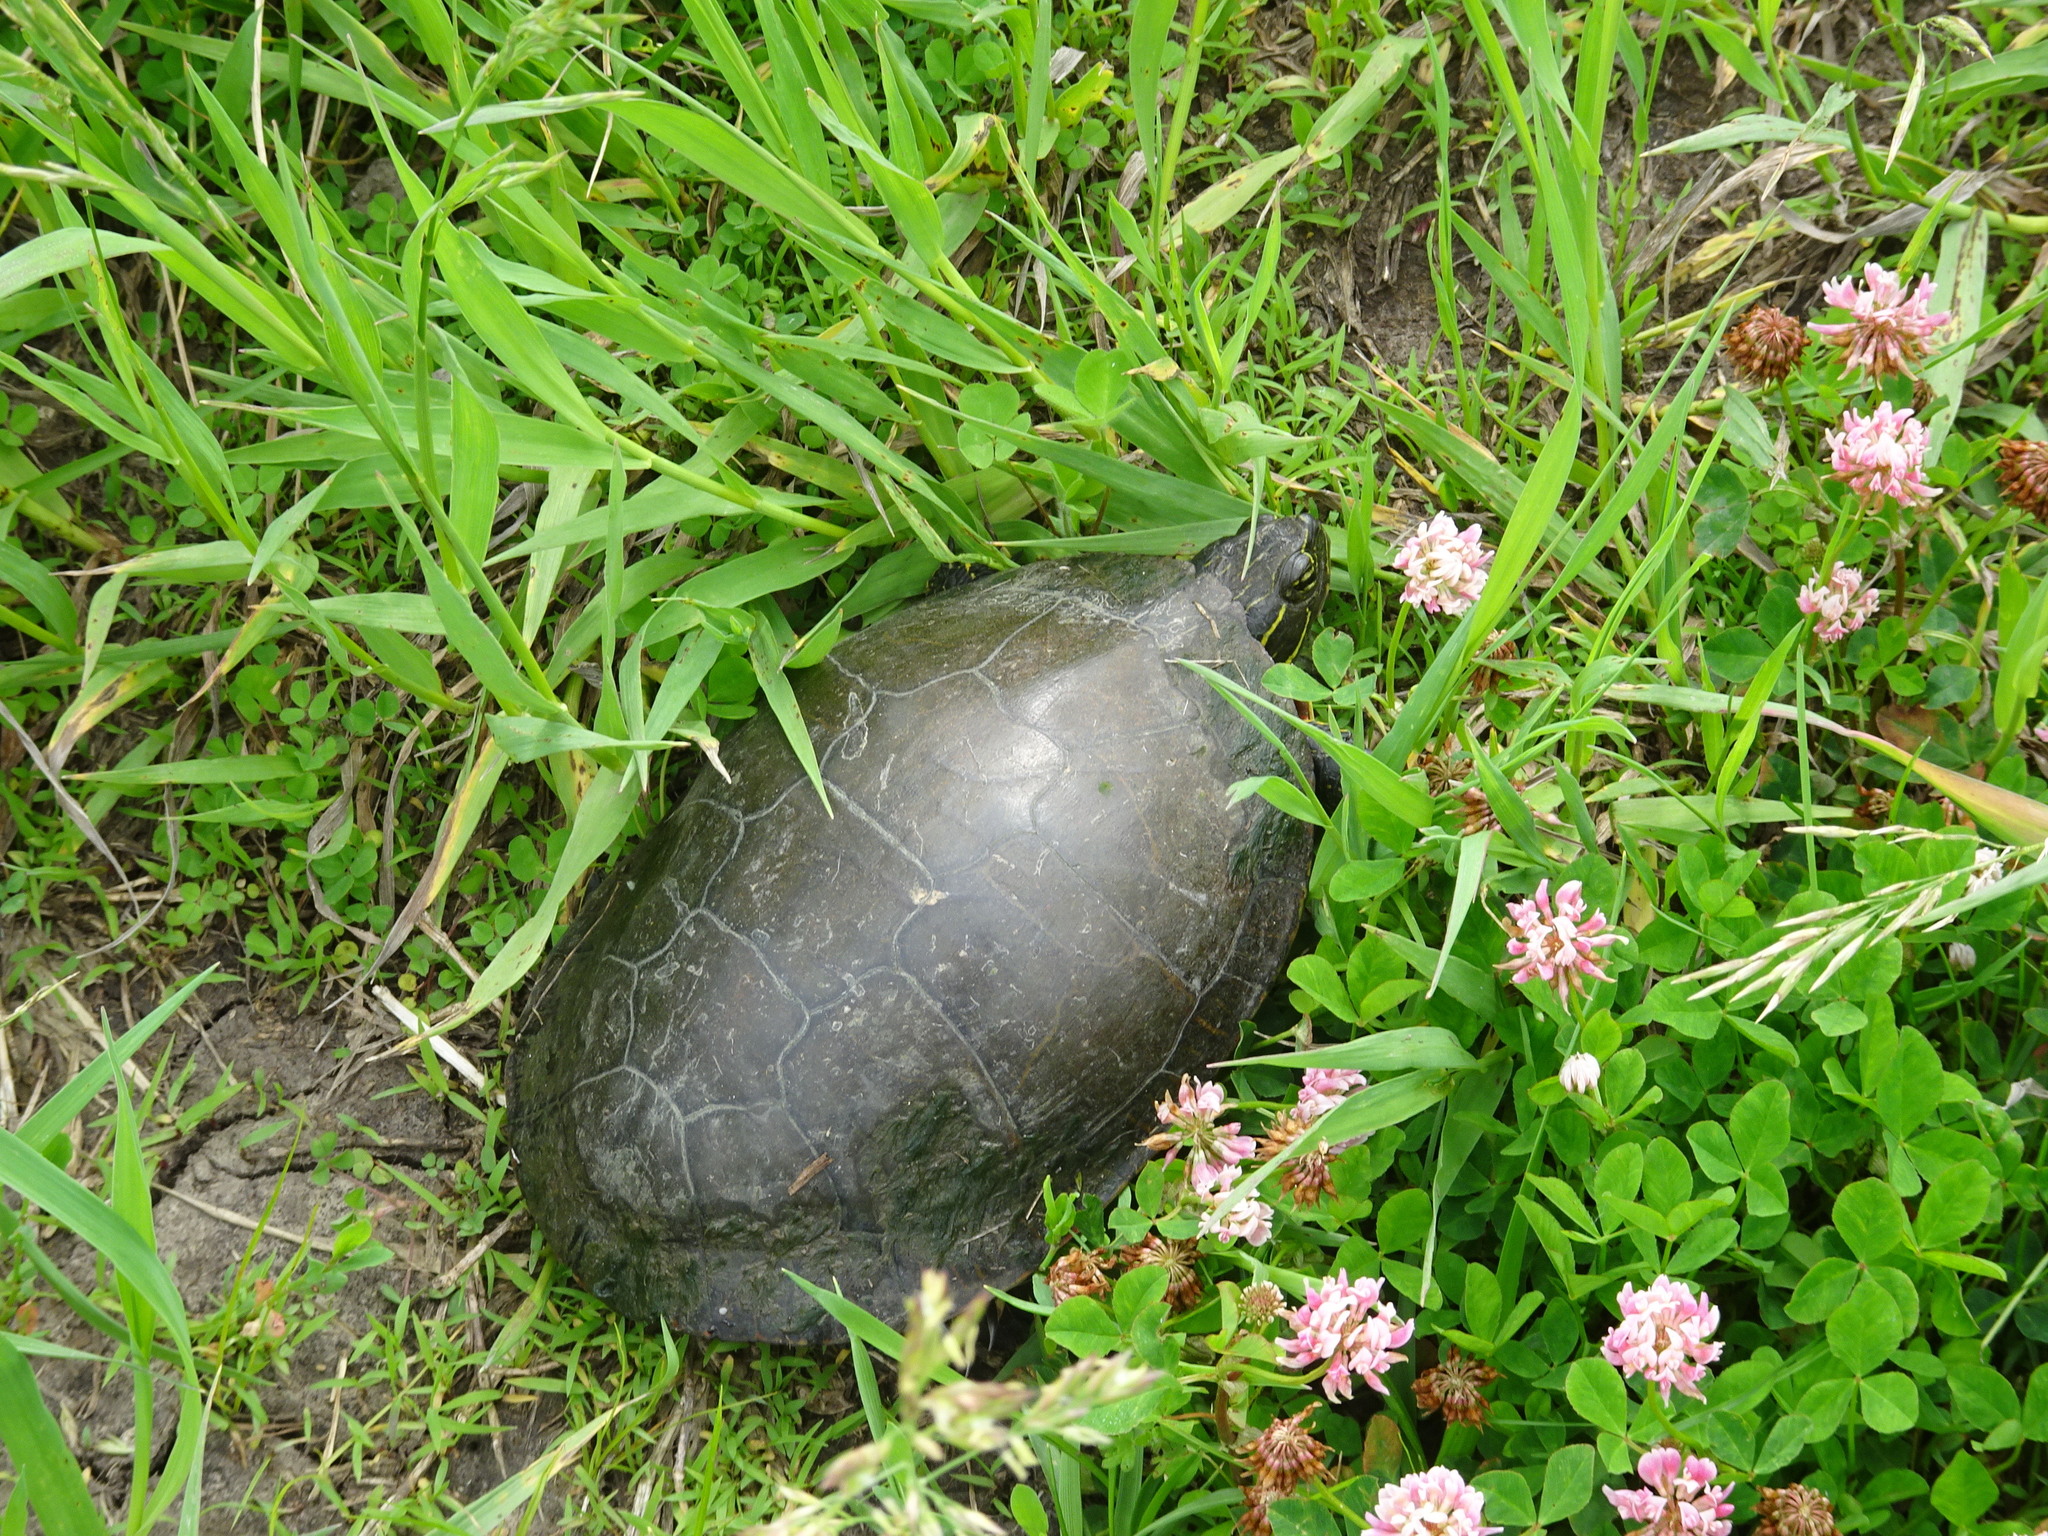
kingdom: Animalia
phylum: Chordata
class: Testudines
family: Emydidae
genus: Chrysemys
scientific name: Chrysemys picta
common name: Painted turtle
